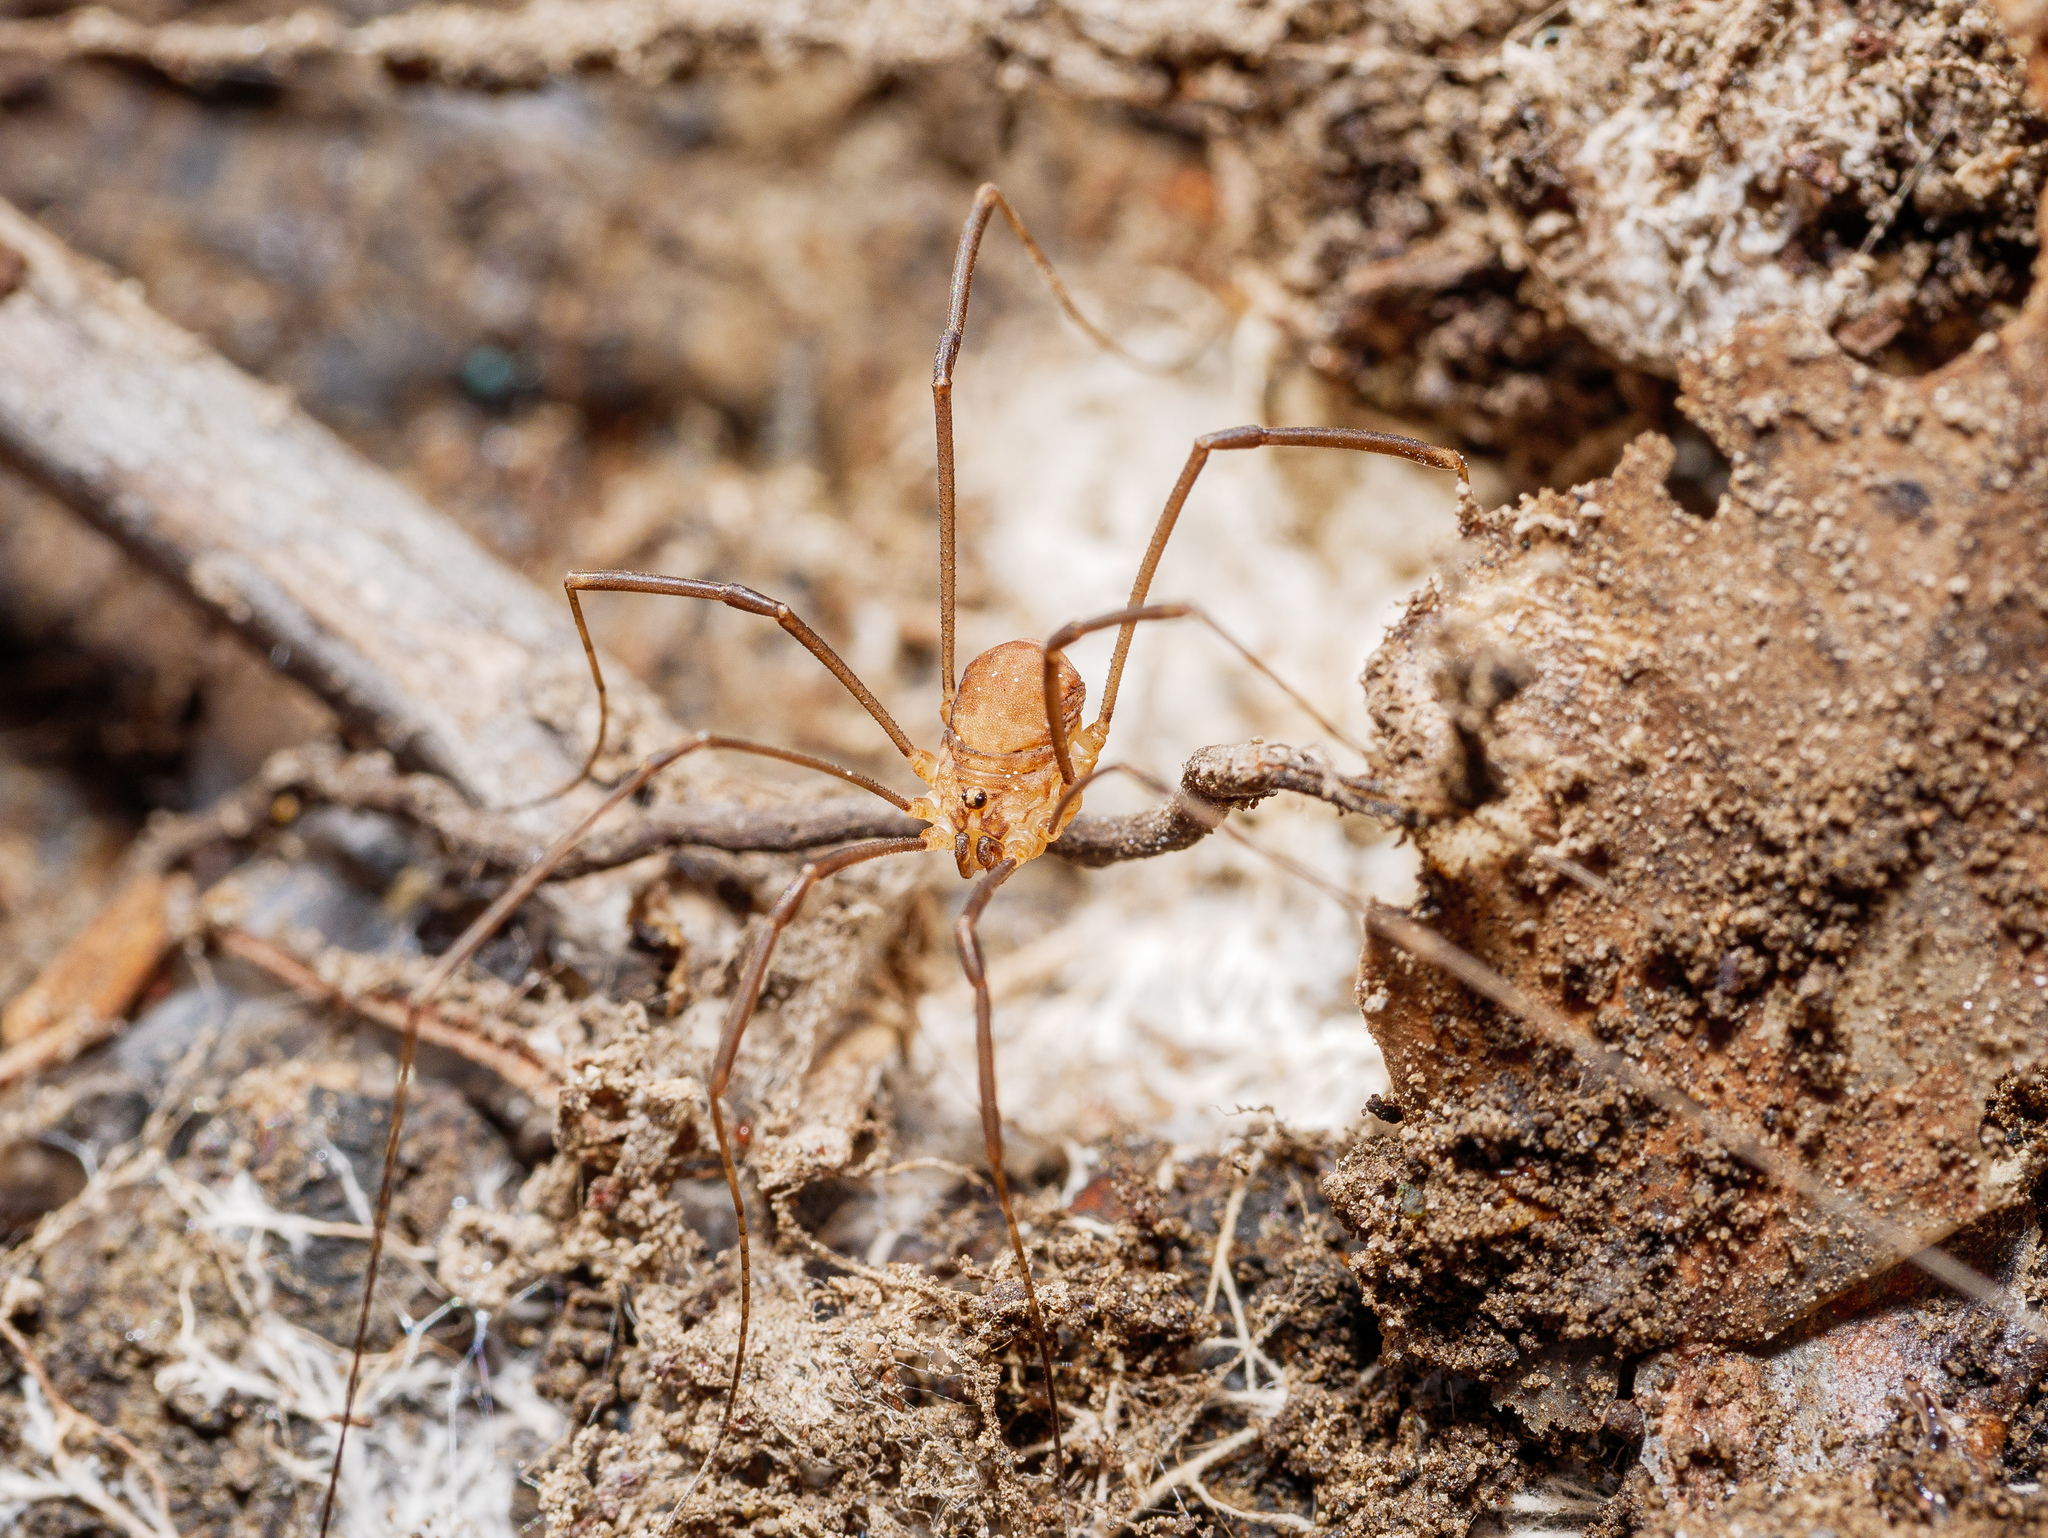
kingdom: Animalia
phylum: Arthropoda
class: Arachnida
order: Opiliones
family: Sclerosomatidae
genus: Nelima
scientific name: Nelima doriae
